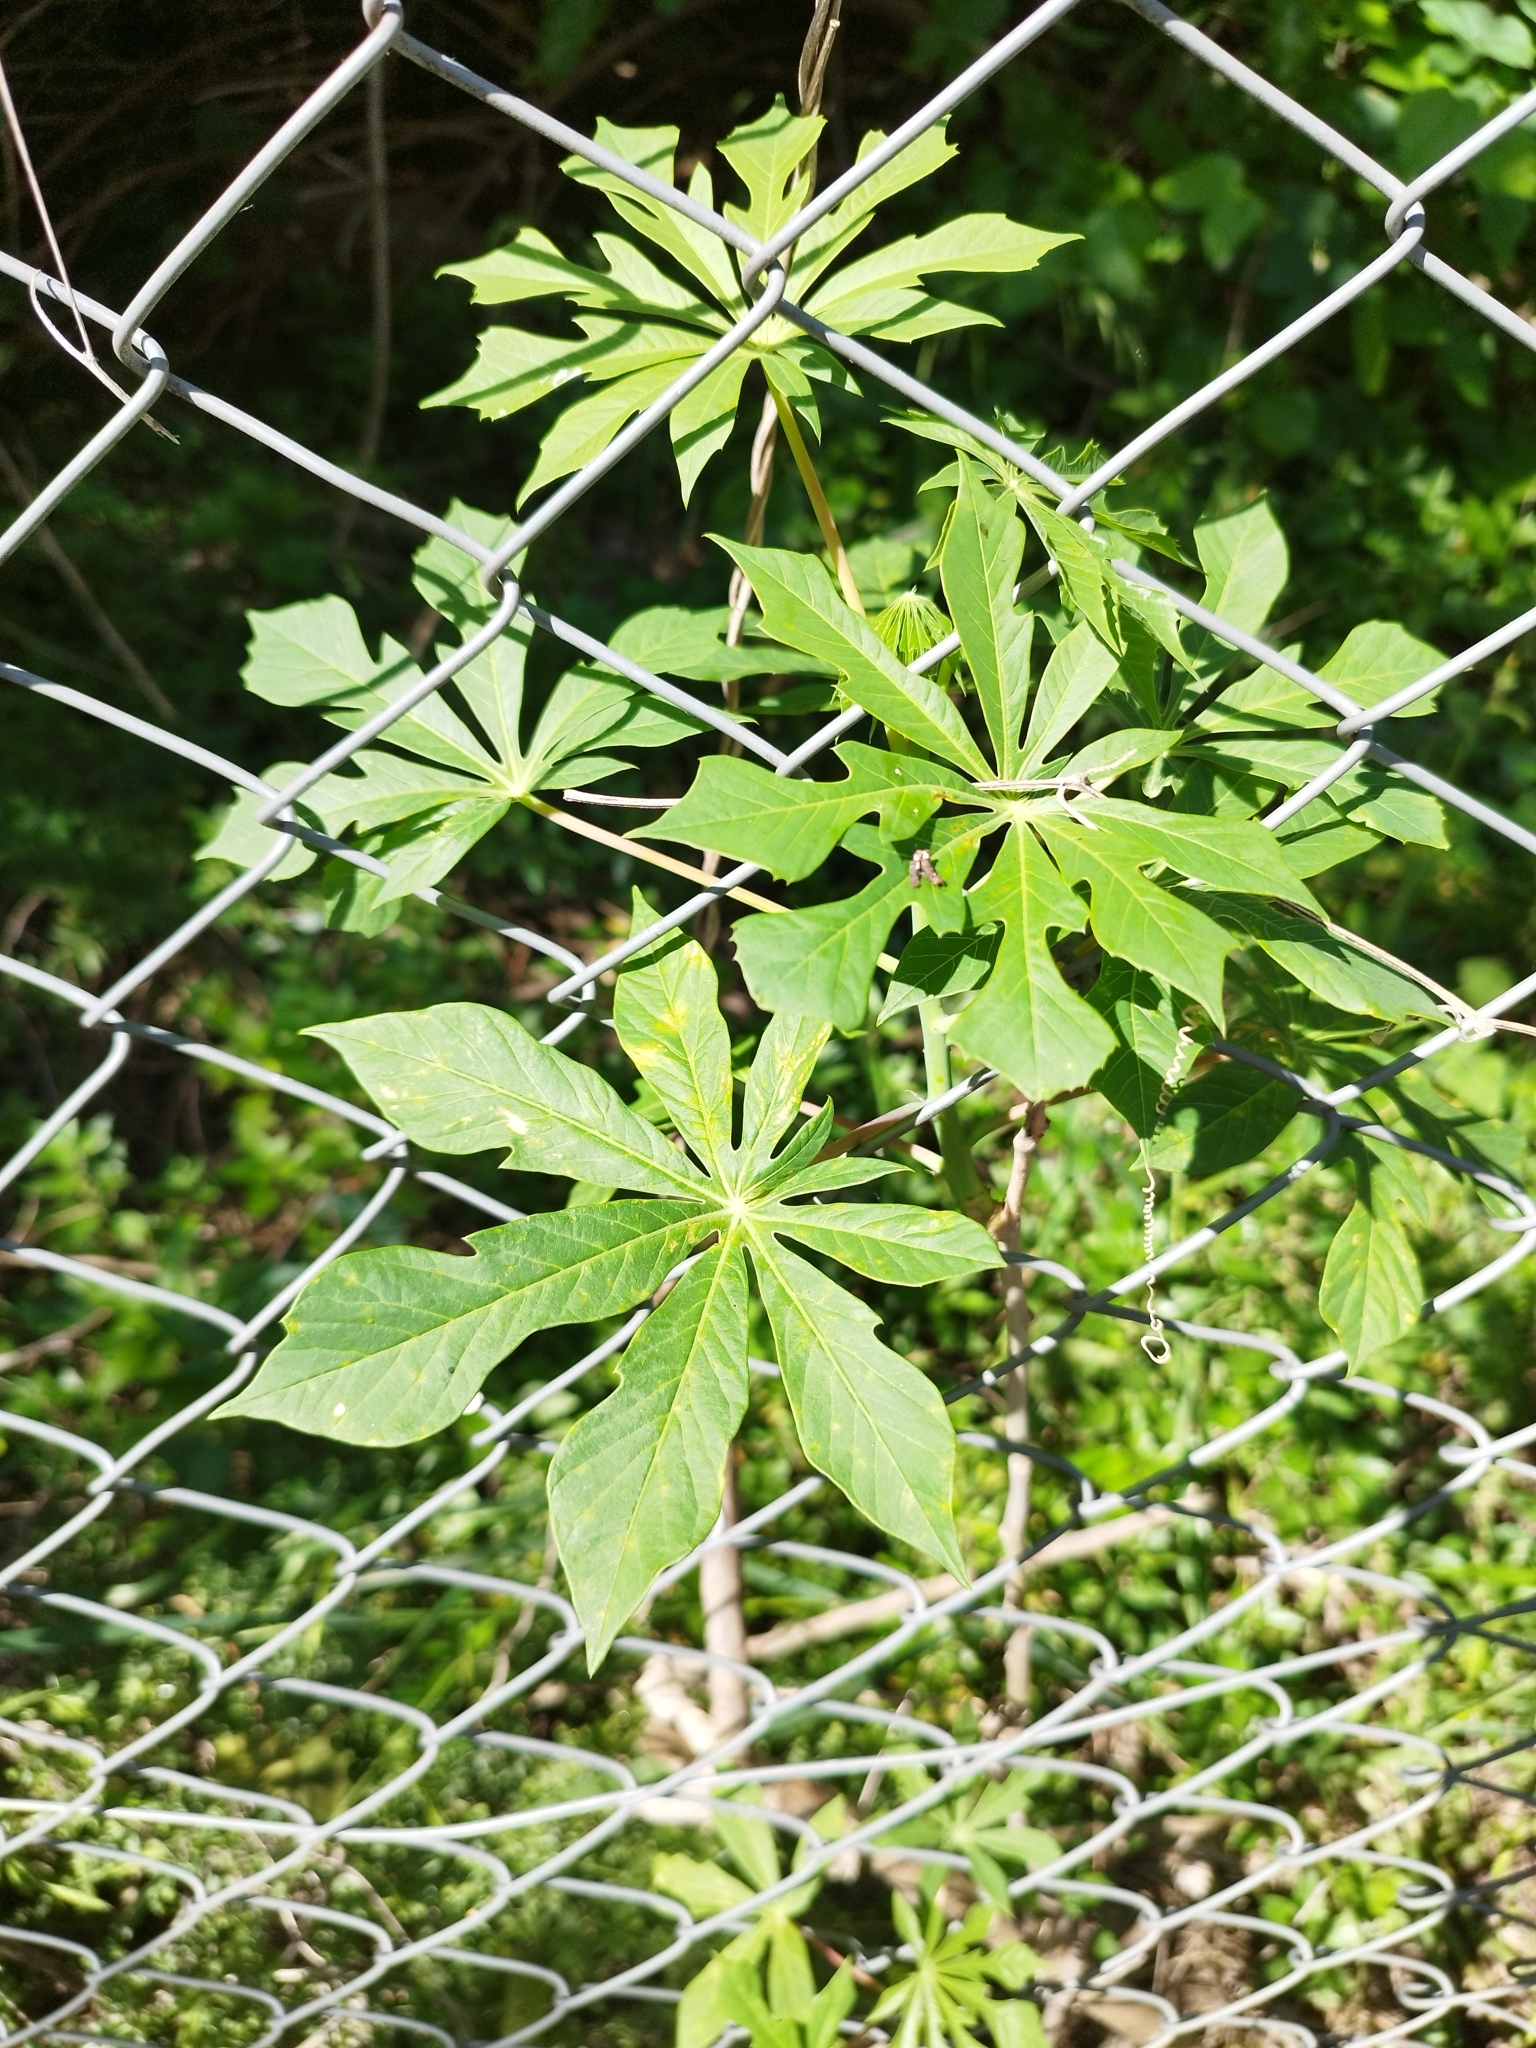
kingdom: Plantae
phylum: Tracheophyta
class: Magnoliopsida
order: Malpighiales
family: Euphorbiaceae
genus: Manihot
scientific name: Manihot grahamii
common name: Graham's manihot
